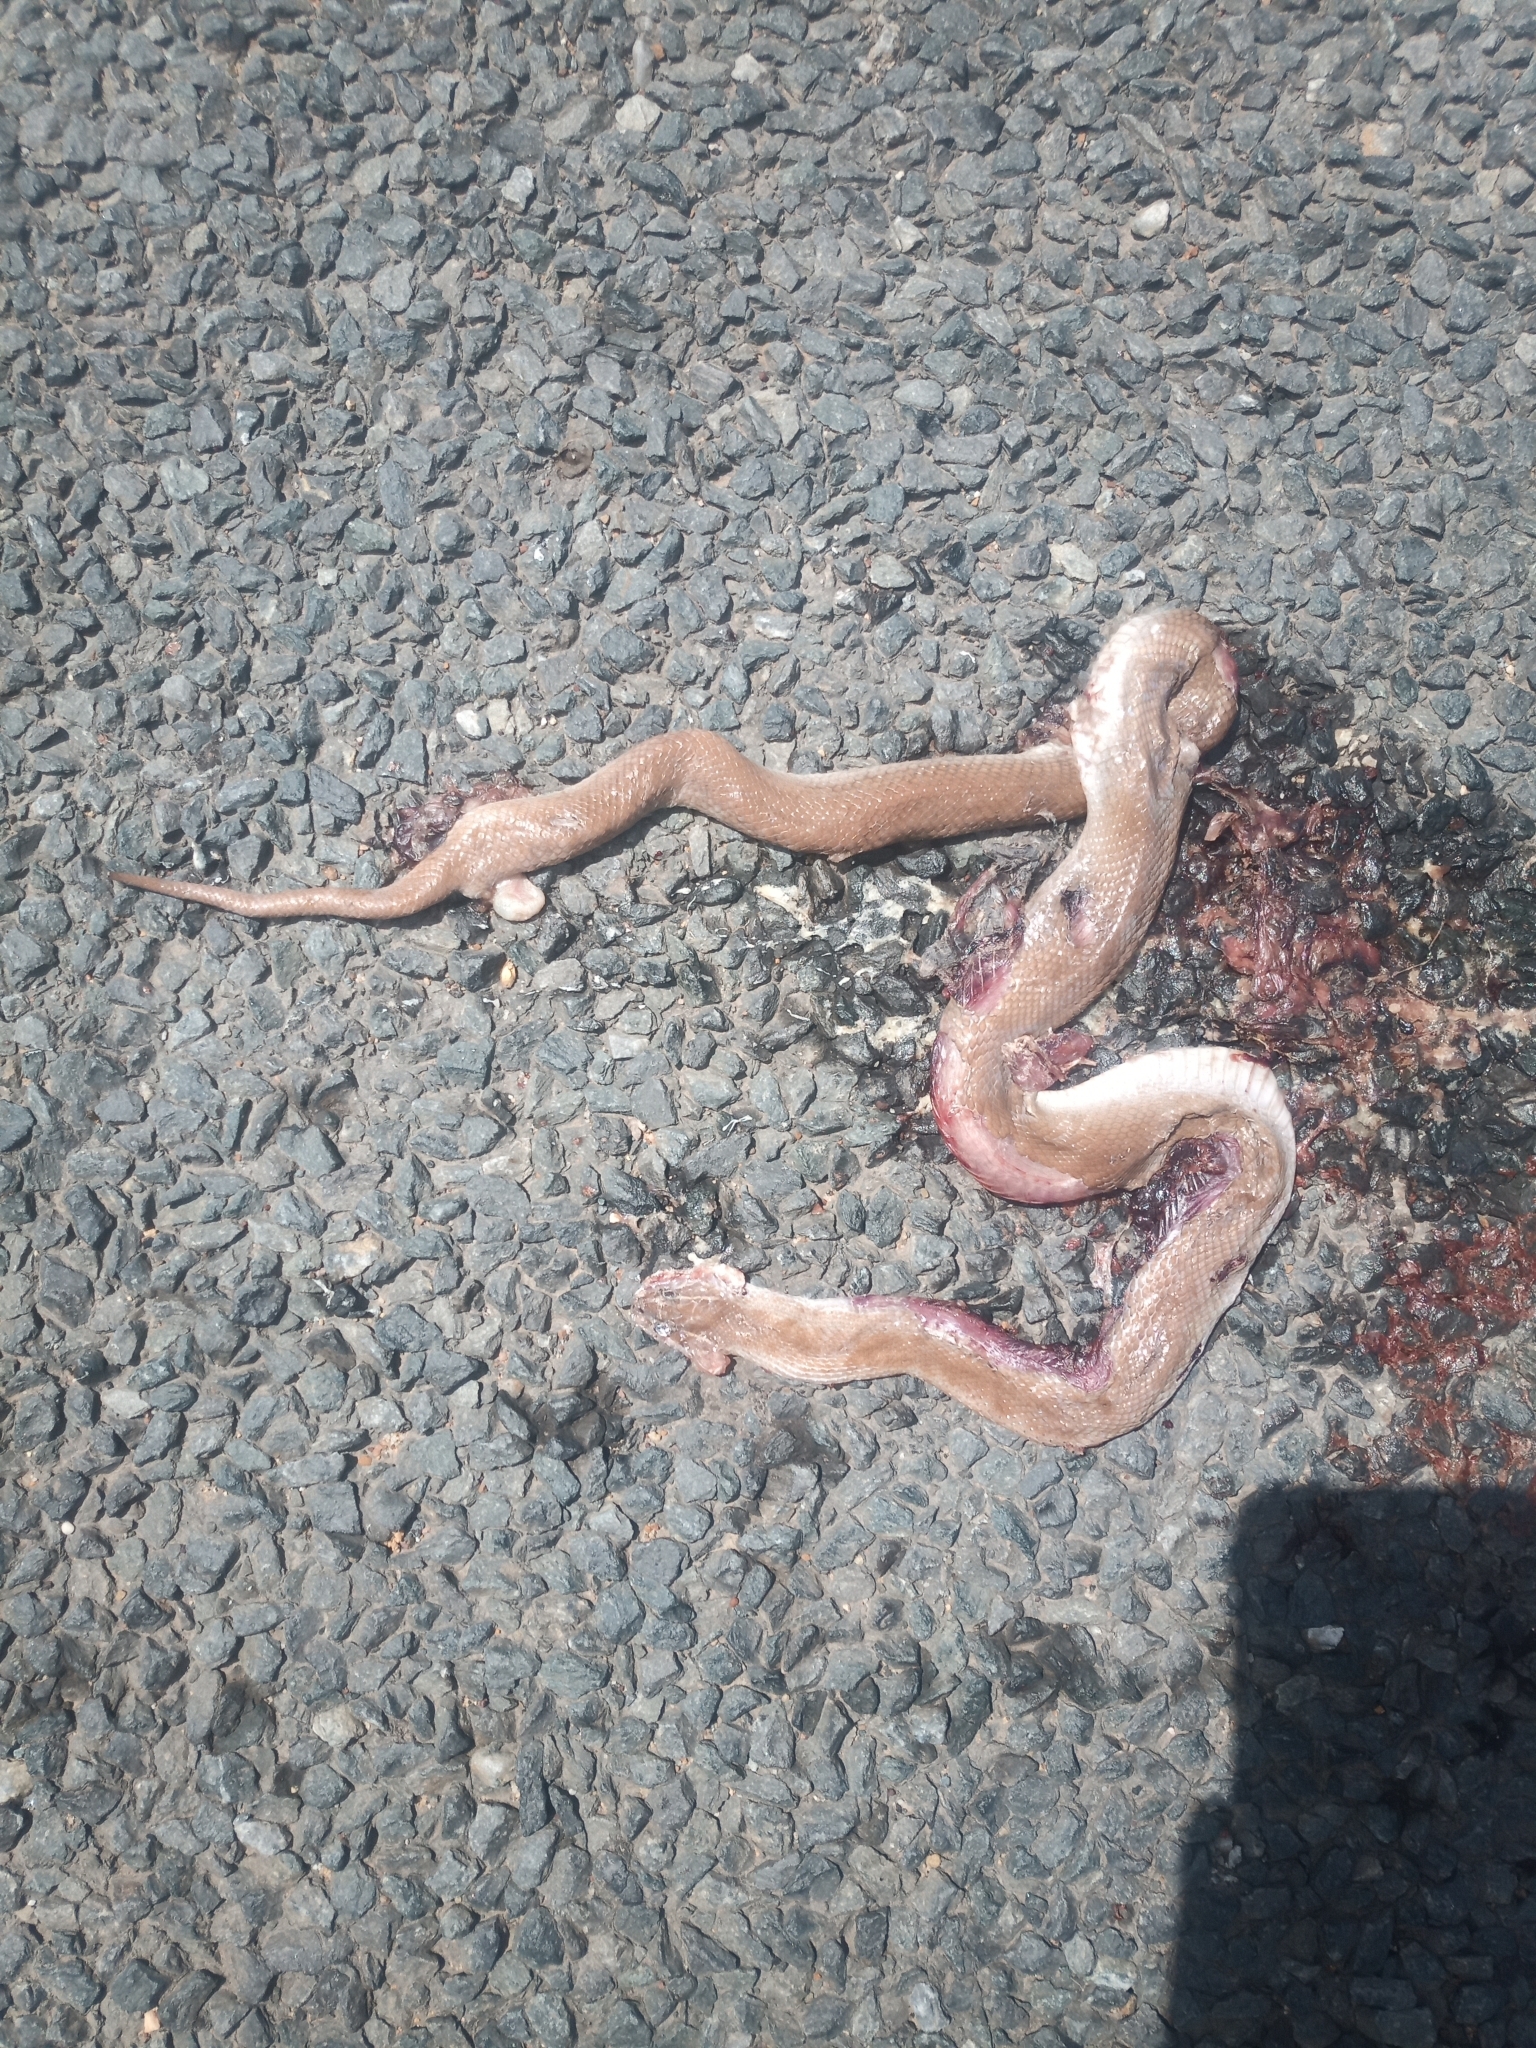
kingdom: Animalia
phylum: Chordata
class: Squamata
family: Lamprophiidae
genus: Boaedon
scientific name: Boaedon capensis
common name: Brown house snake
